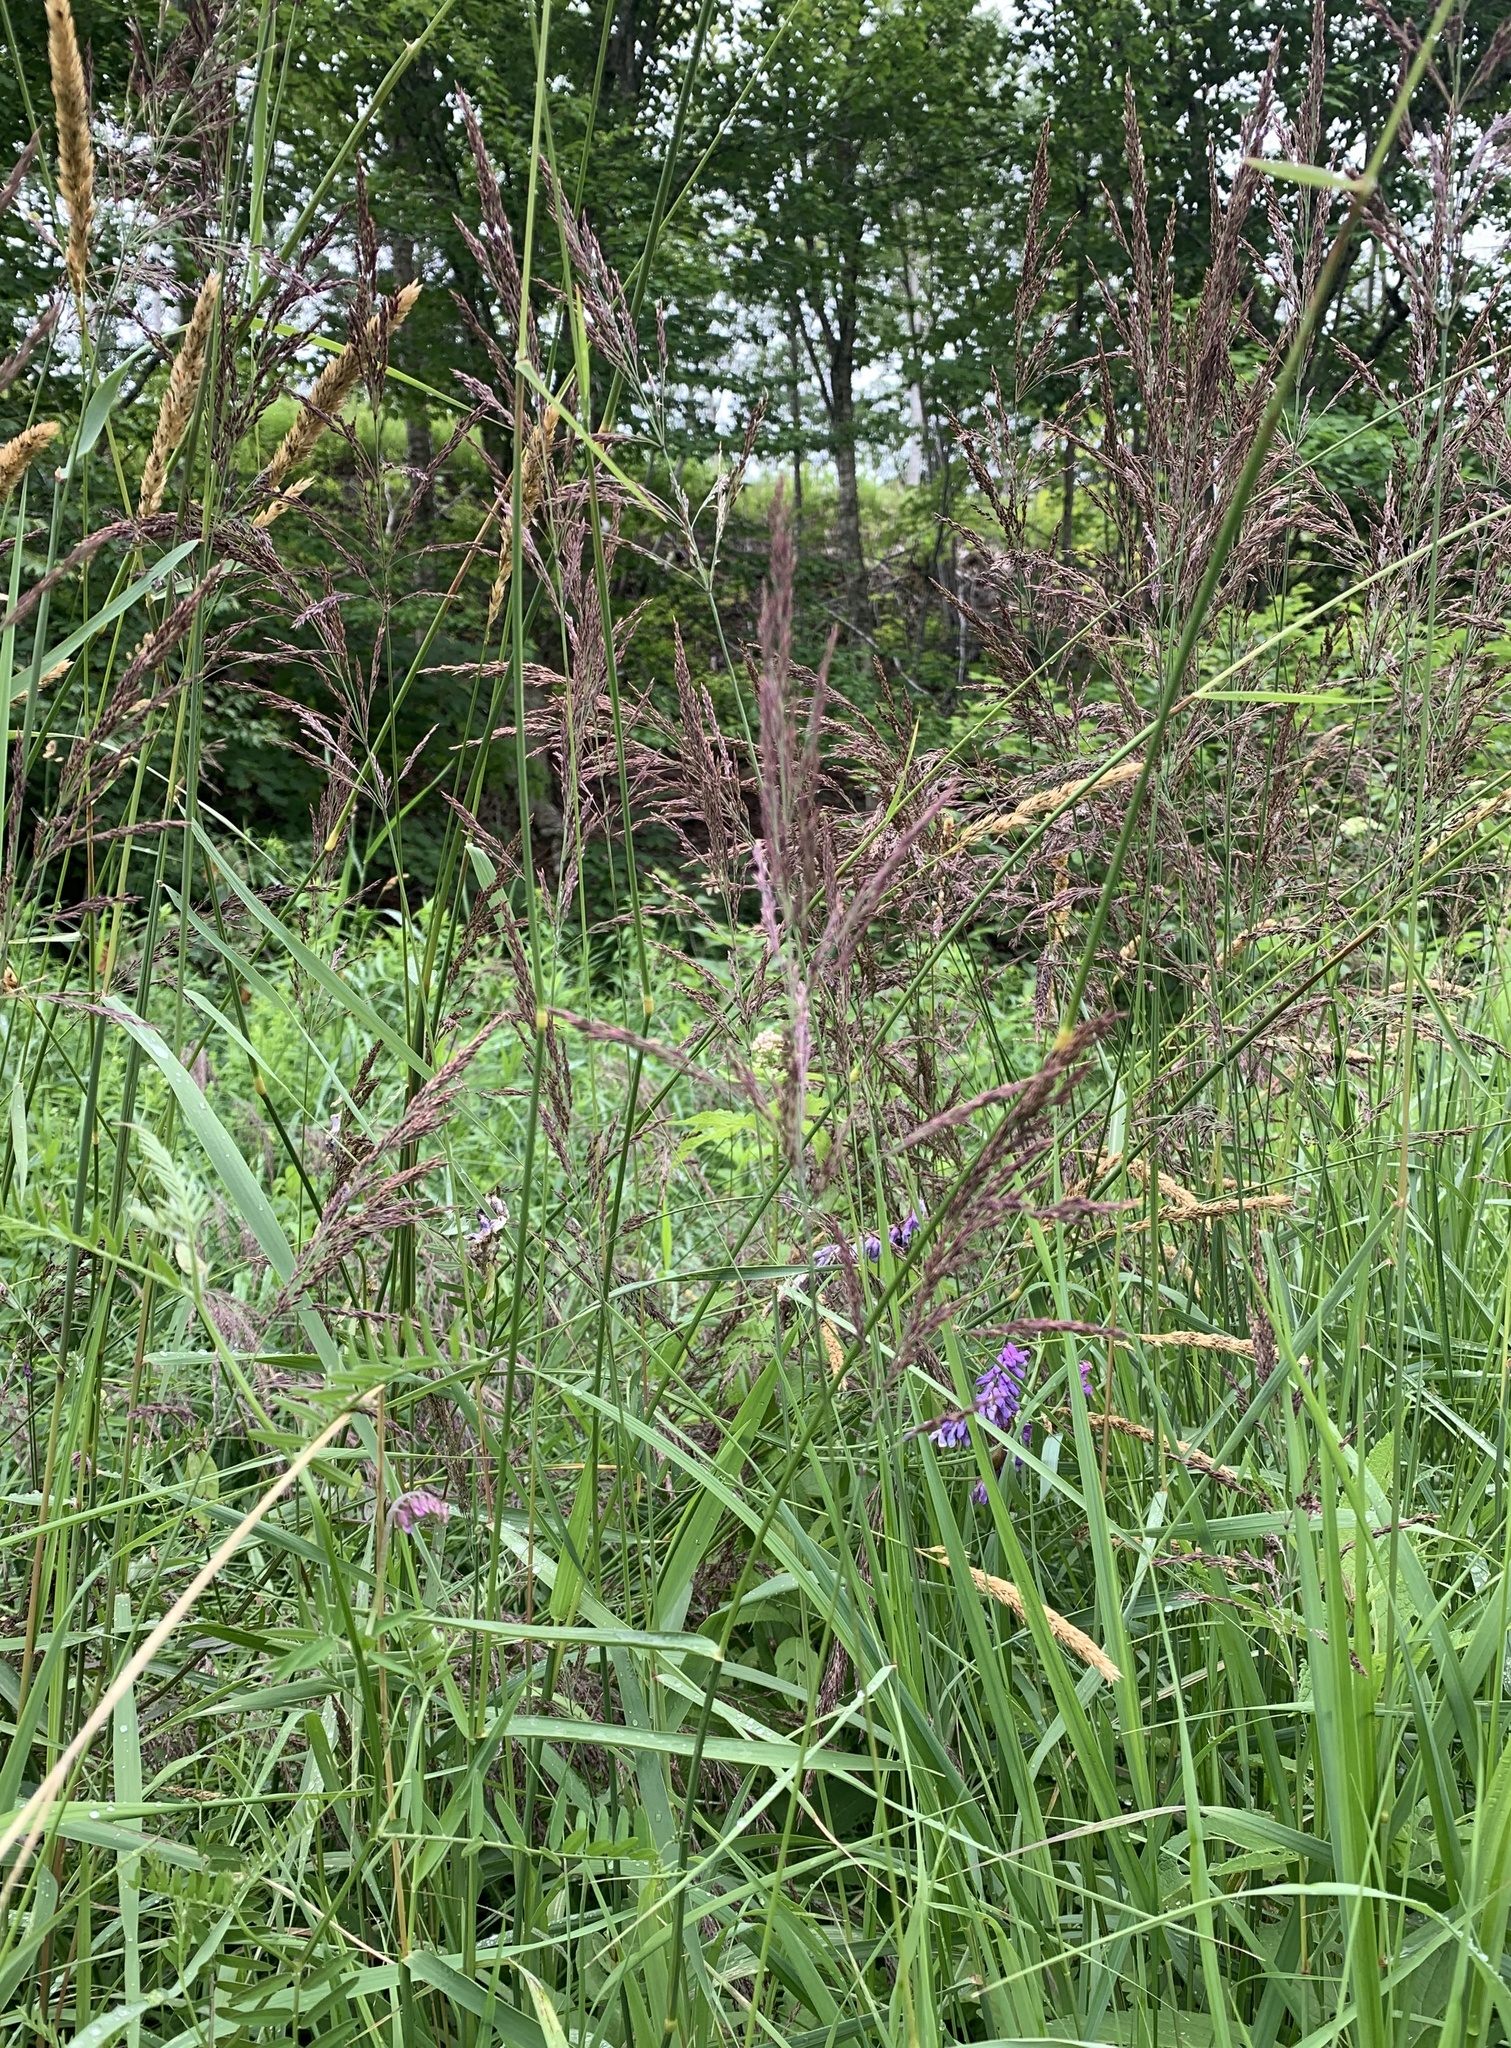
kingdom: Plantae
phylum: Tracheophyta
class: Liliopsida
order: Poales
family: Poaceae
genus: Calamagrostis
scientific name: Calamagrostis canadensis
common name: Canada bluejoint
